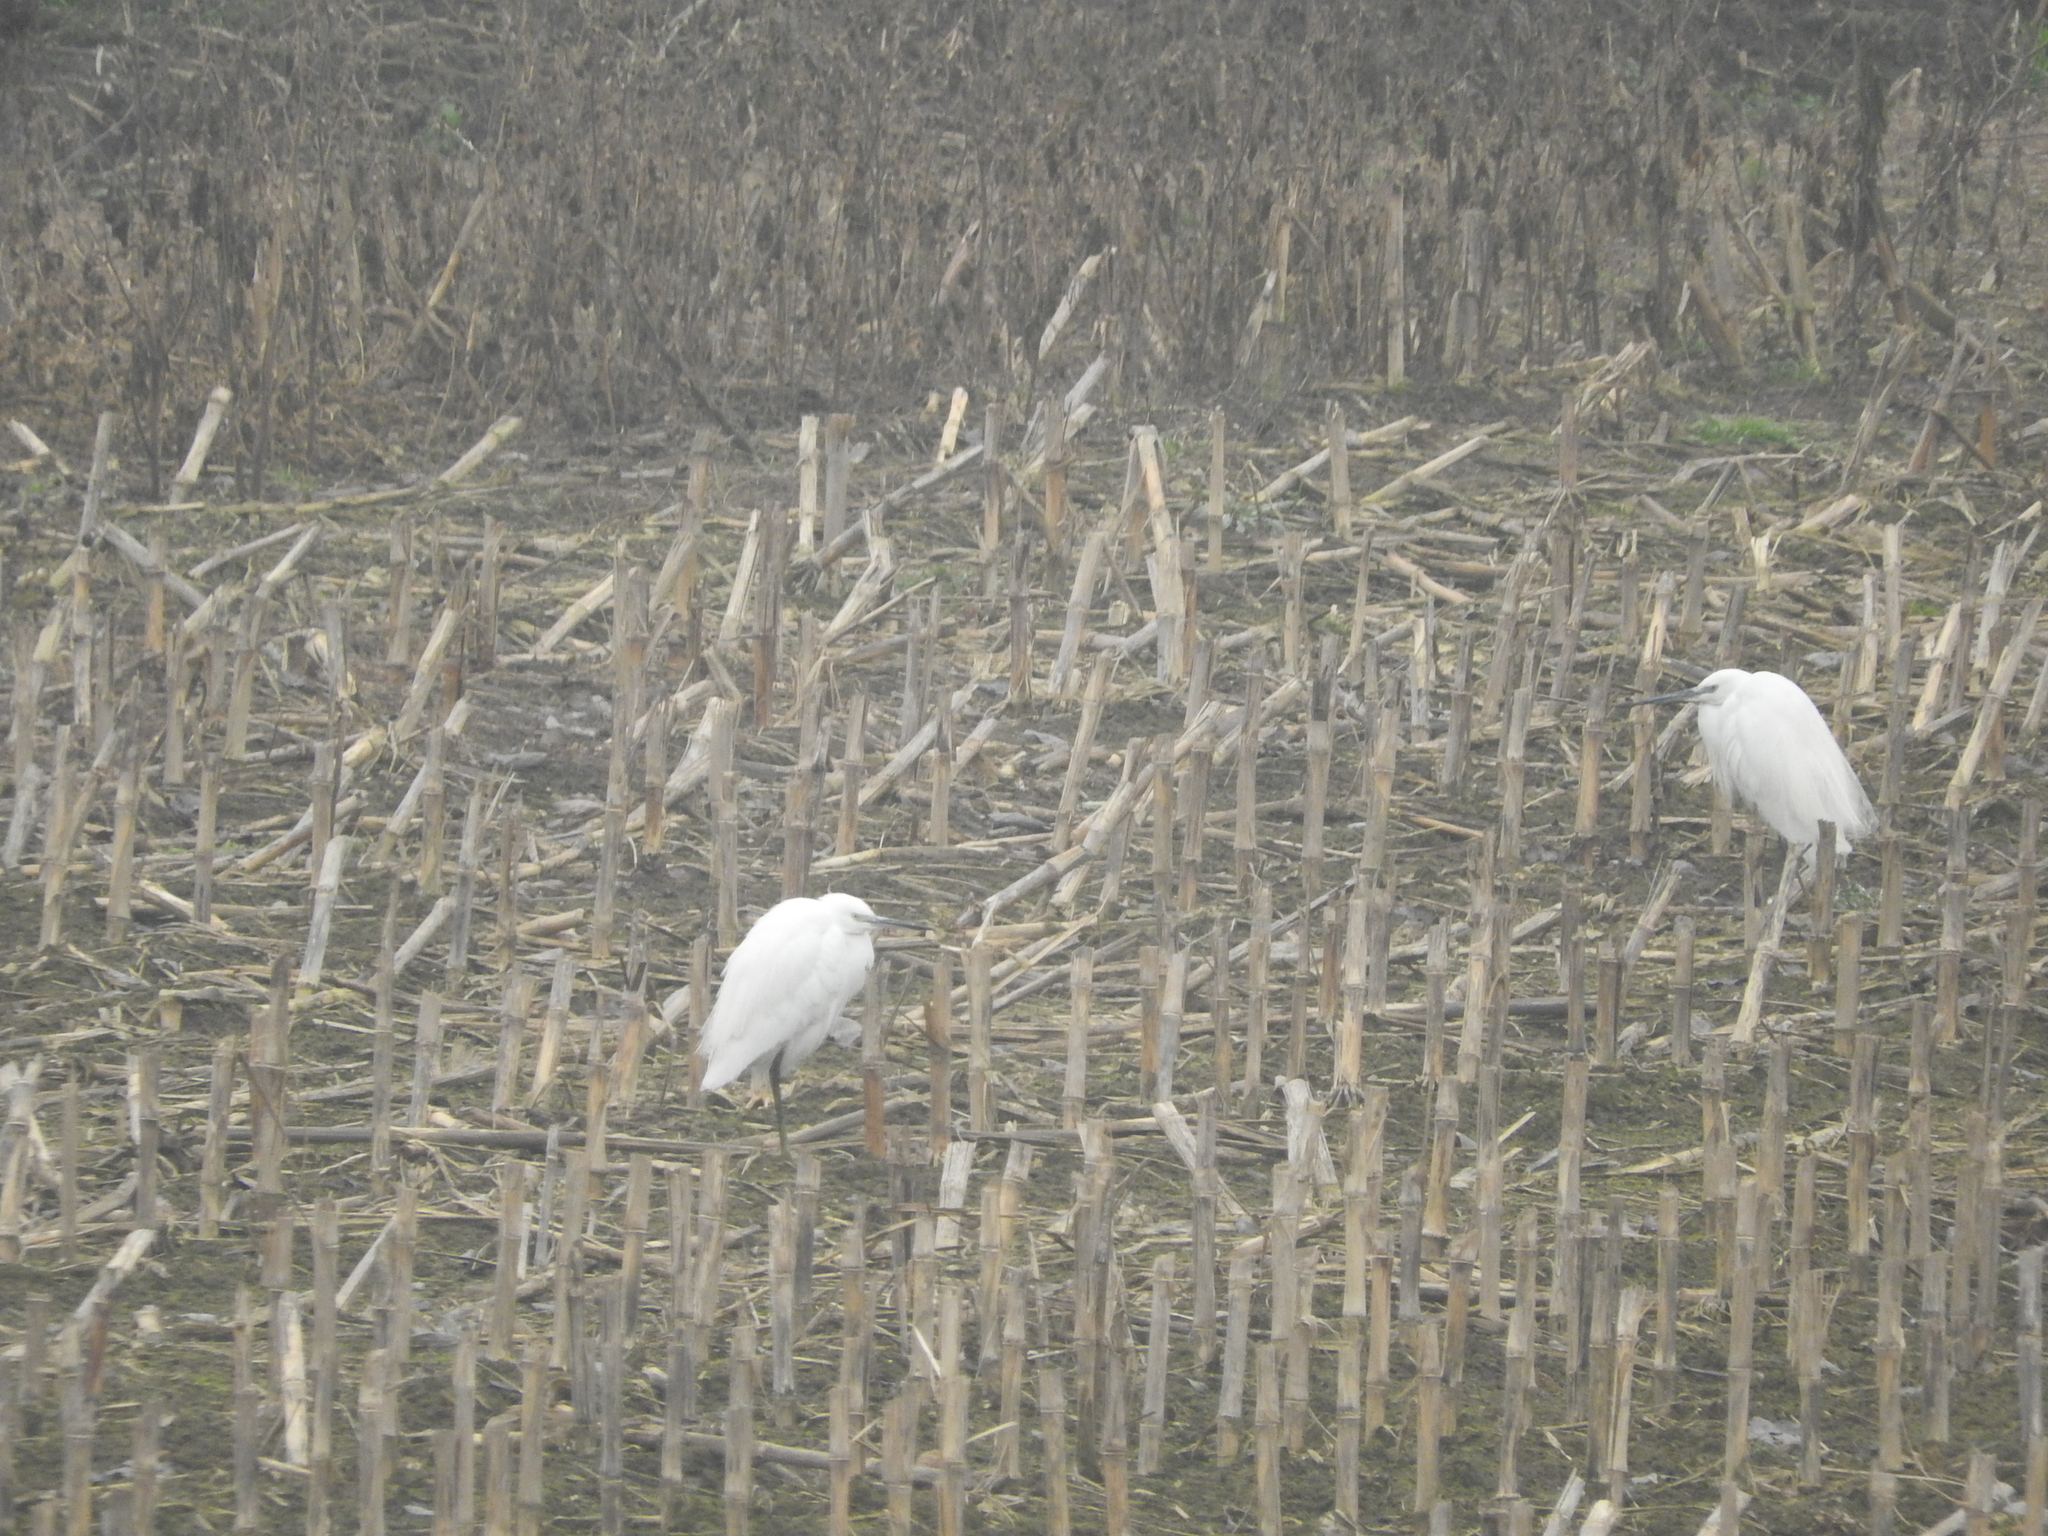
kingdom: Animalia
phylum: Chordata
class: Aves
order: Pelecaniformes
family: Ardeidae
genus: Egretta
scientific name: Egretta garzetta
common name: Little egret
